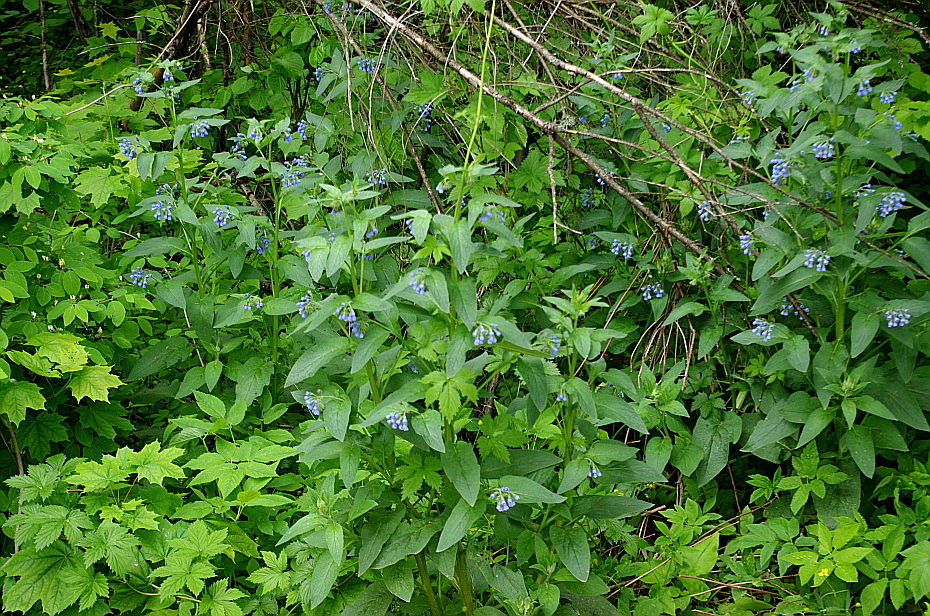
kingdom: Plantae
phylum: Tracheophyta
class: Magnoliopsida
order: Boraginales
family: Boraginaceae
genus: Symphytum
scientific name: Symphytum caucasicum
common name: Caucasian comfrey
